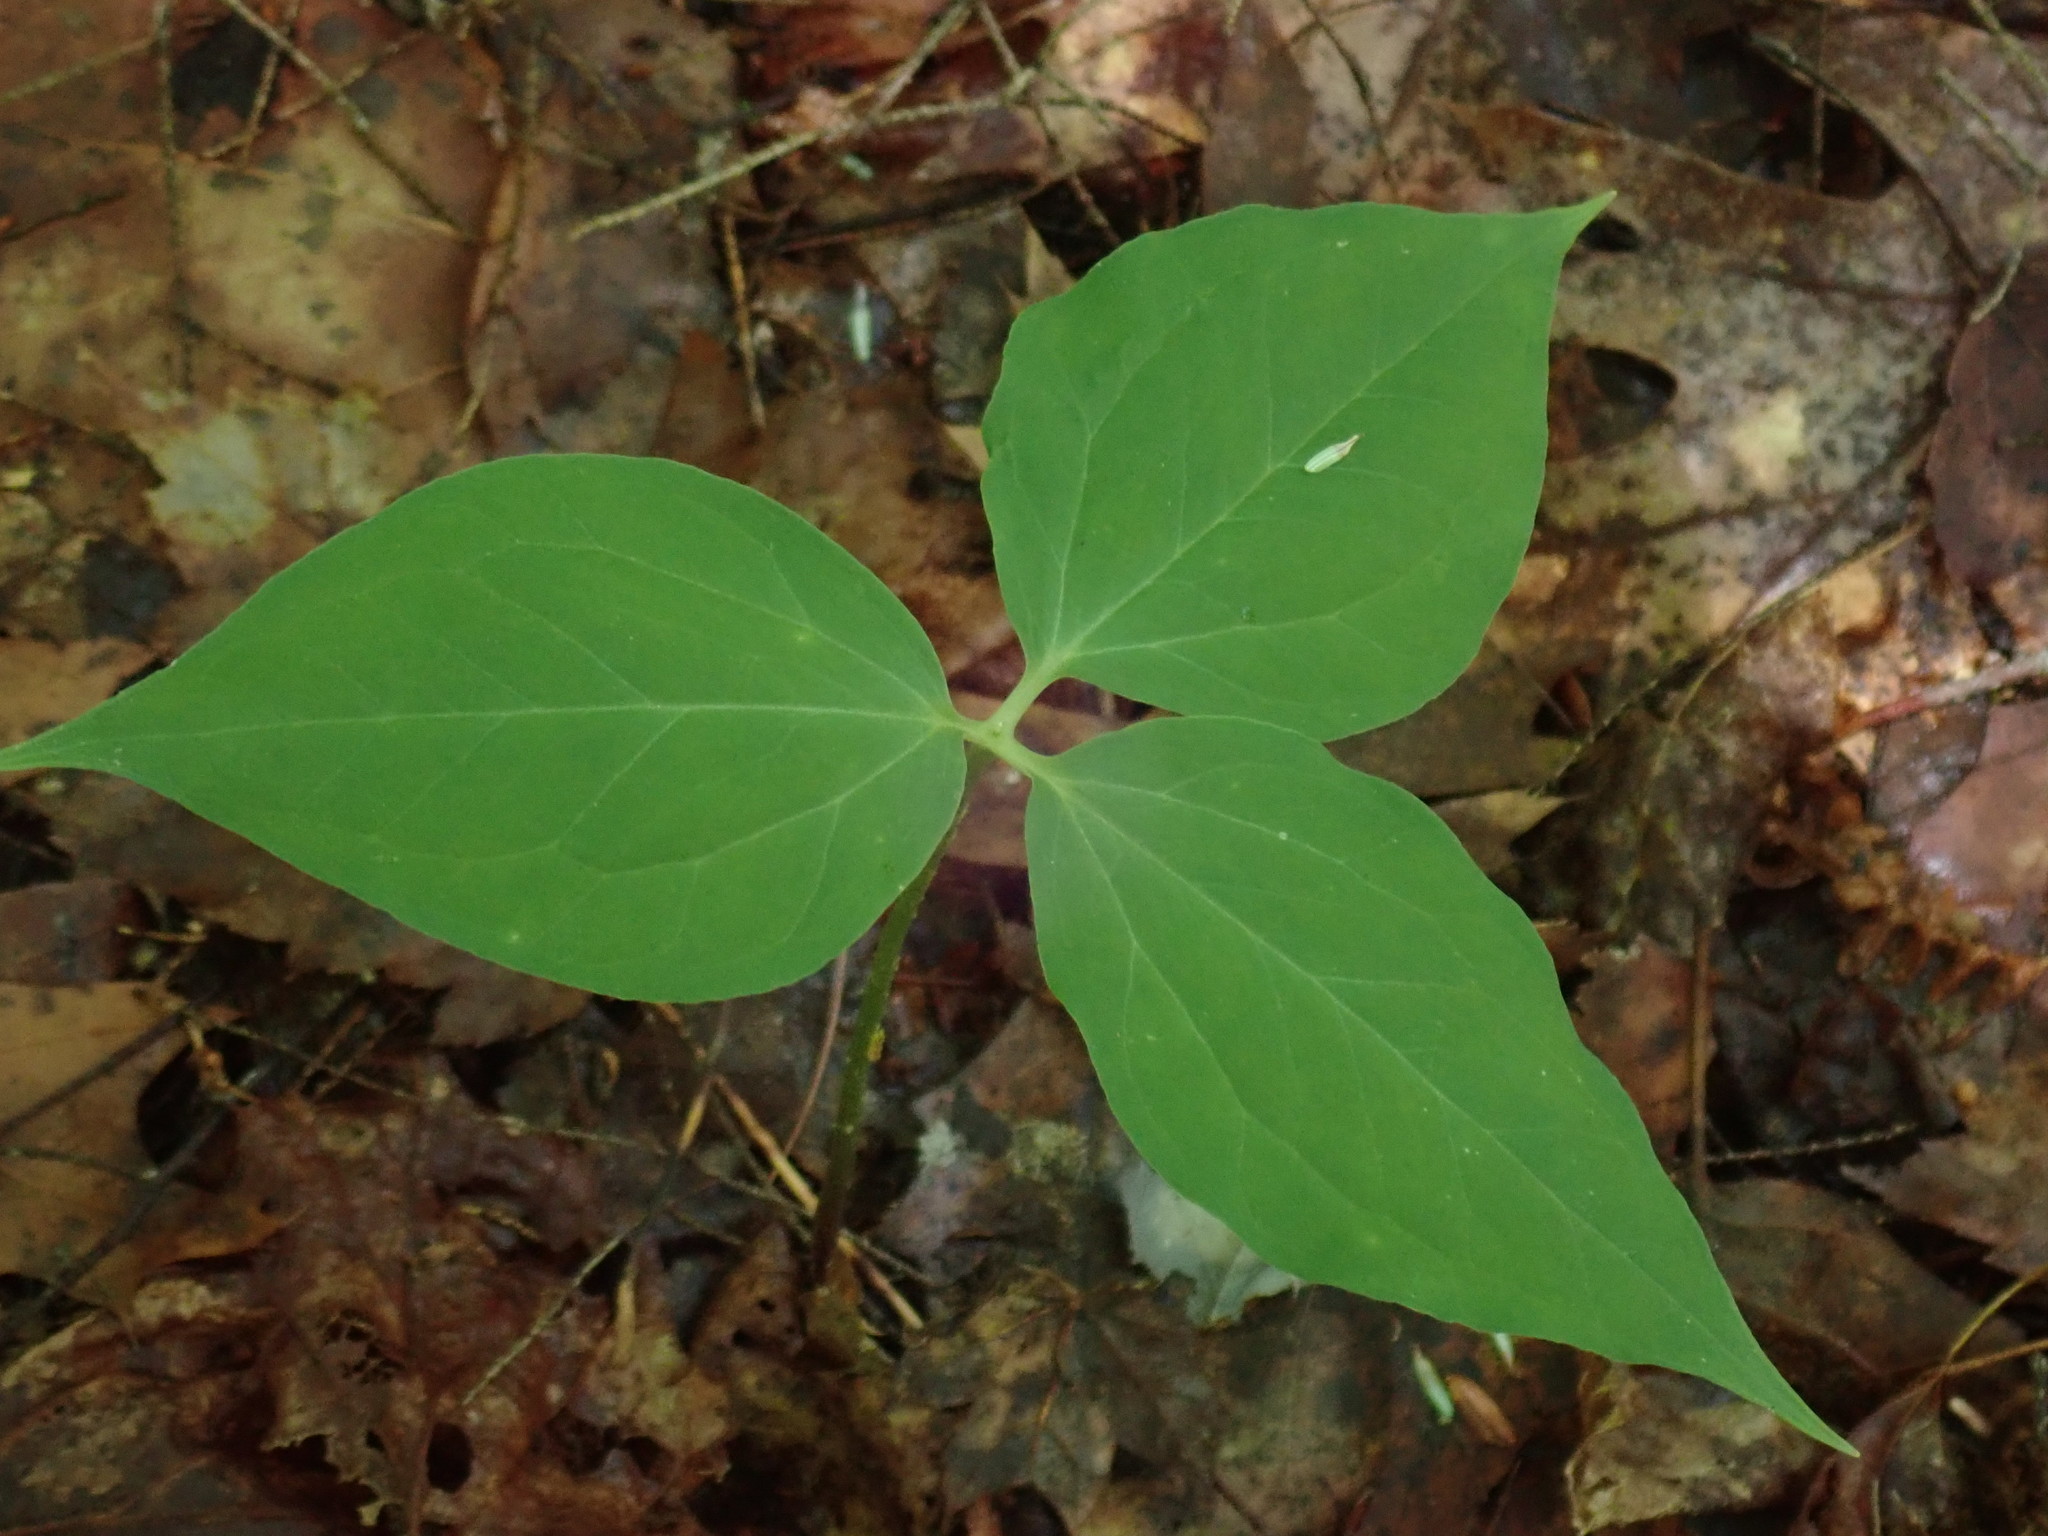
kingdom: Plantae
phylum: Tracheophyta
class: Liliopsida
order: Liliales
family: Melanthiaceae
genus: Trillium
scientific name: Trillium undulatum
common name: Paint trillium
